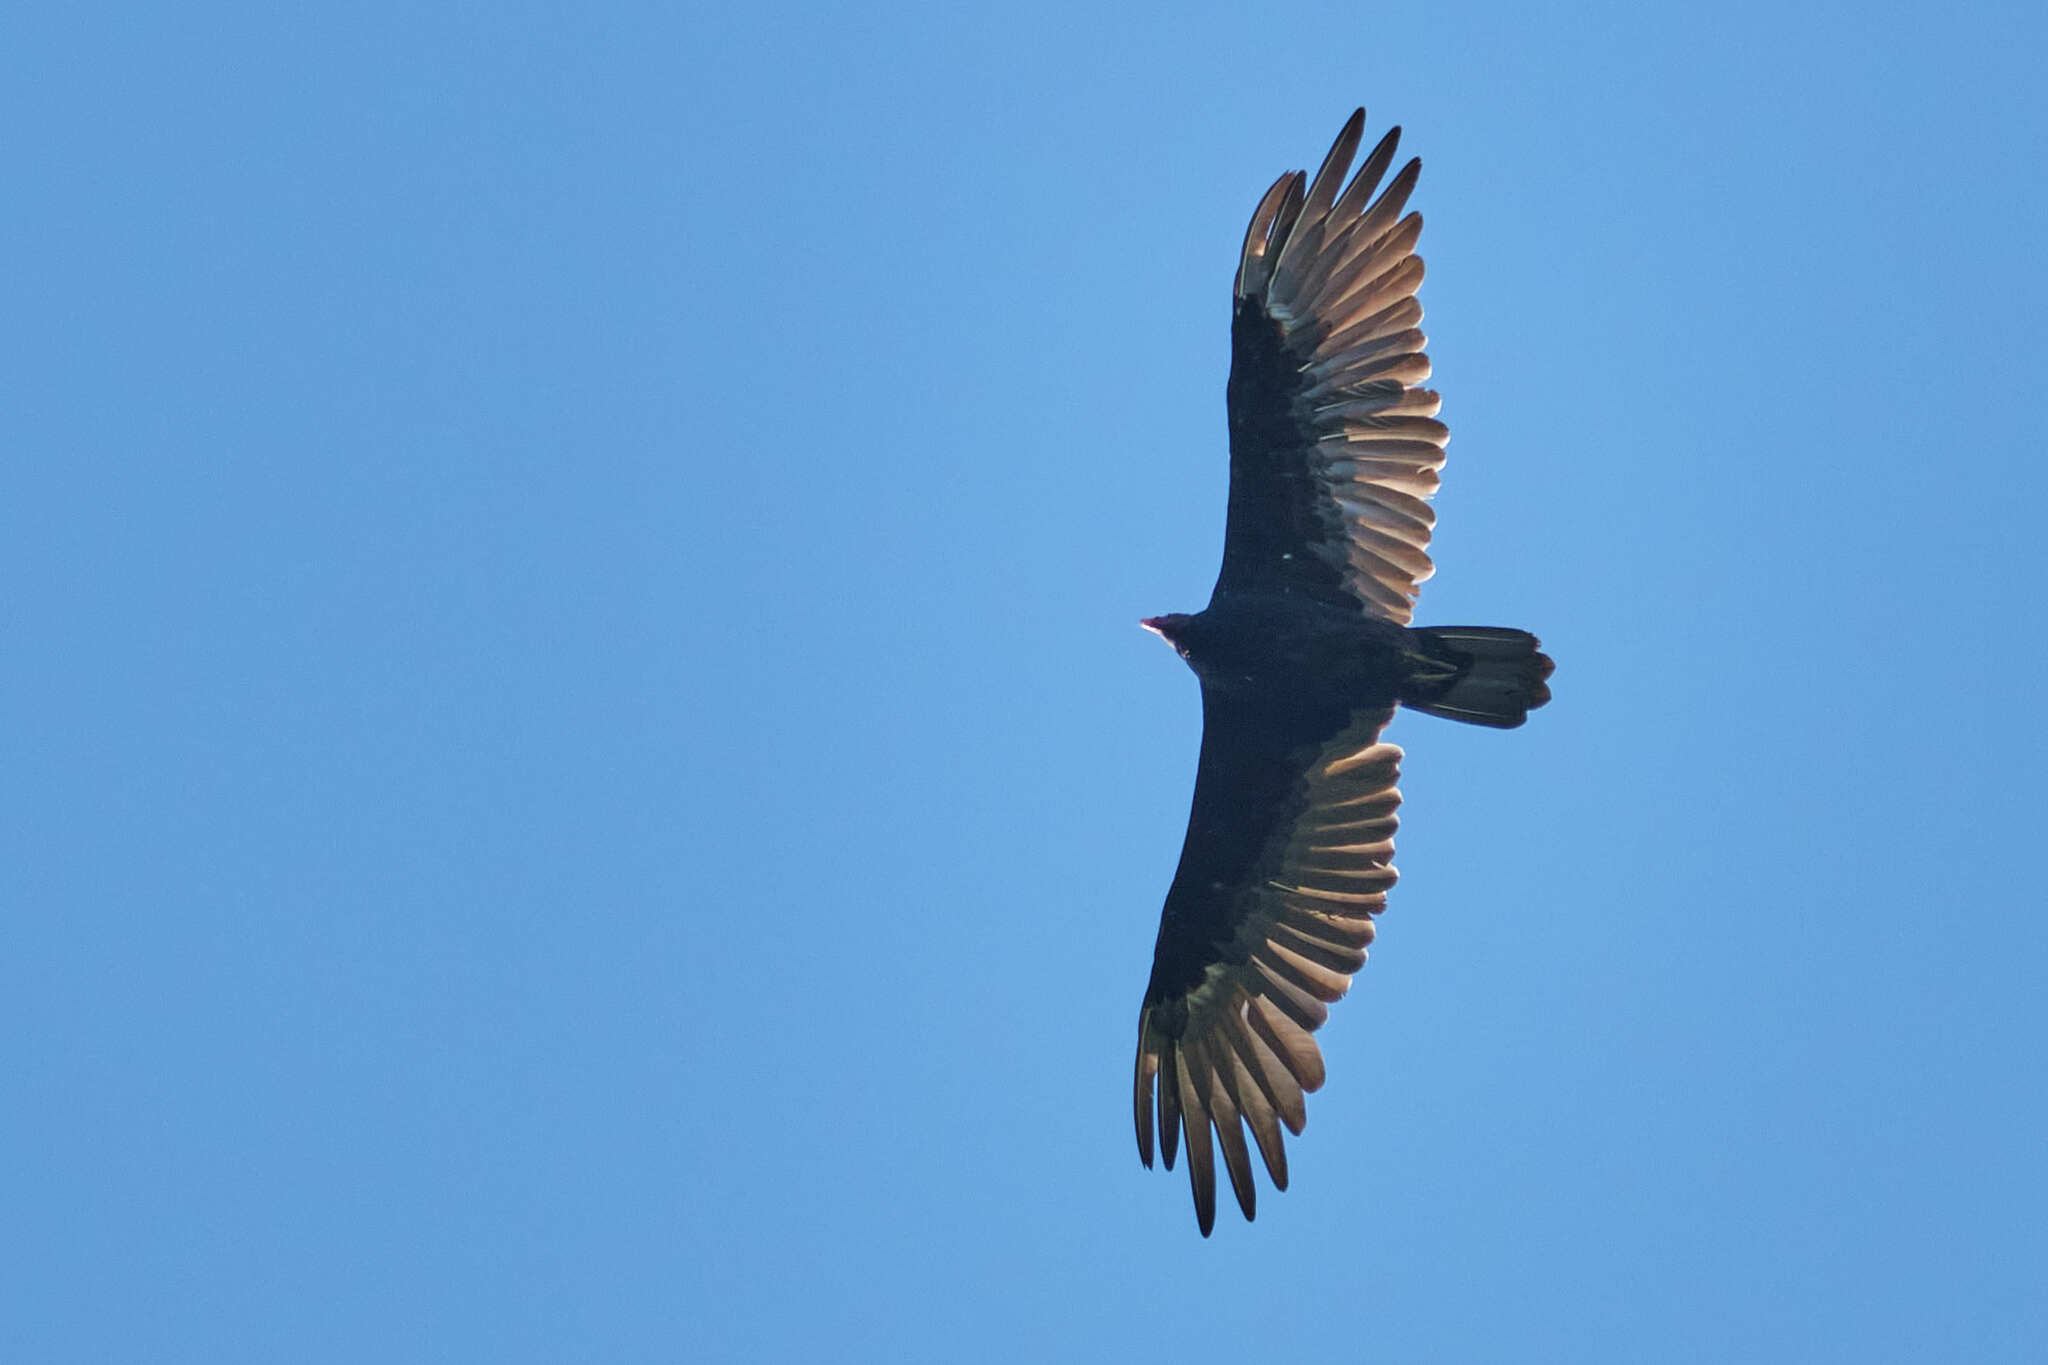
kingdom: Animalia
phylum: Chordata
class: Aves
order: Accipitriformes
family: Cathartidae
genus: Cathartes
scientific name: Cathartes aura
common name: Turkey vulture
